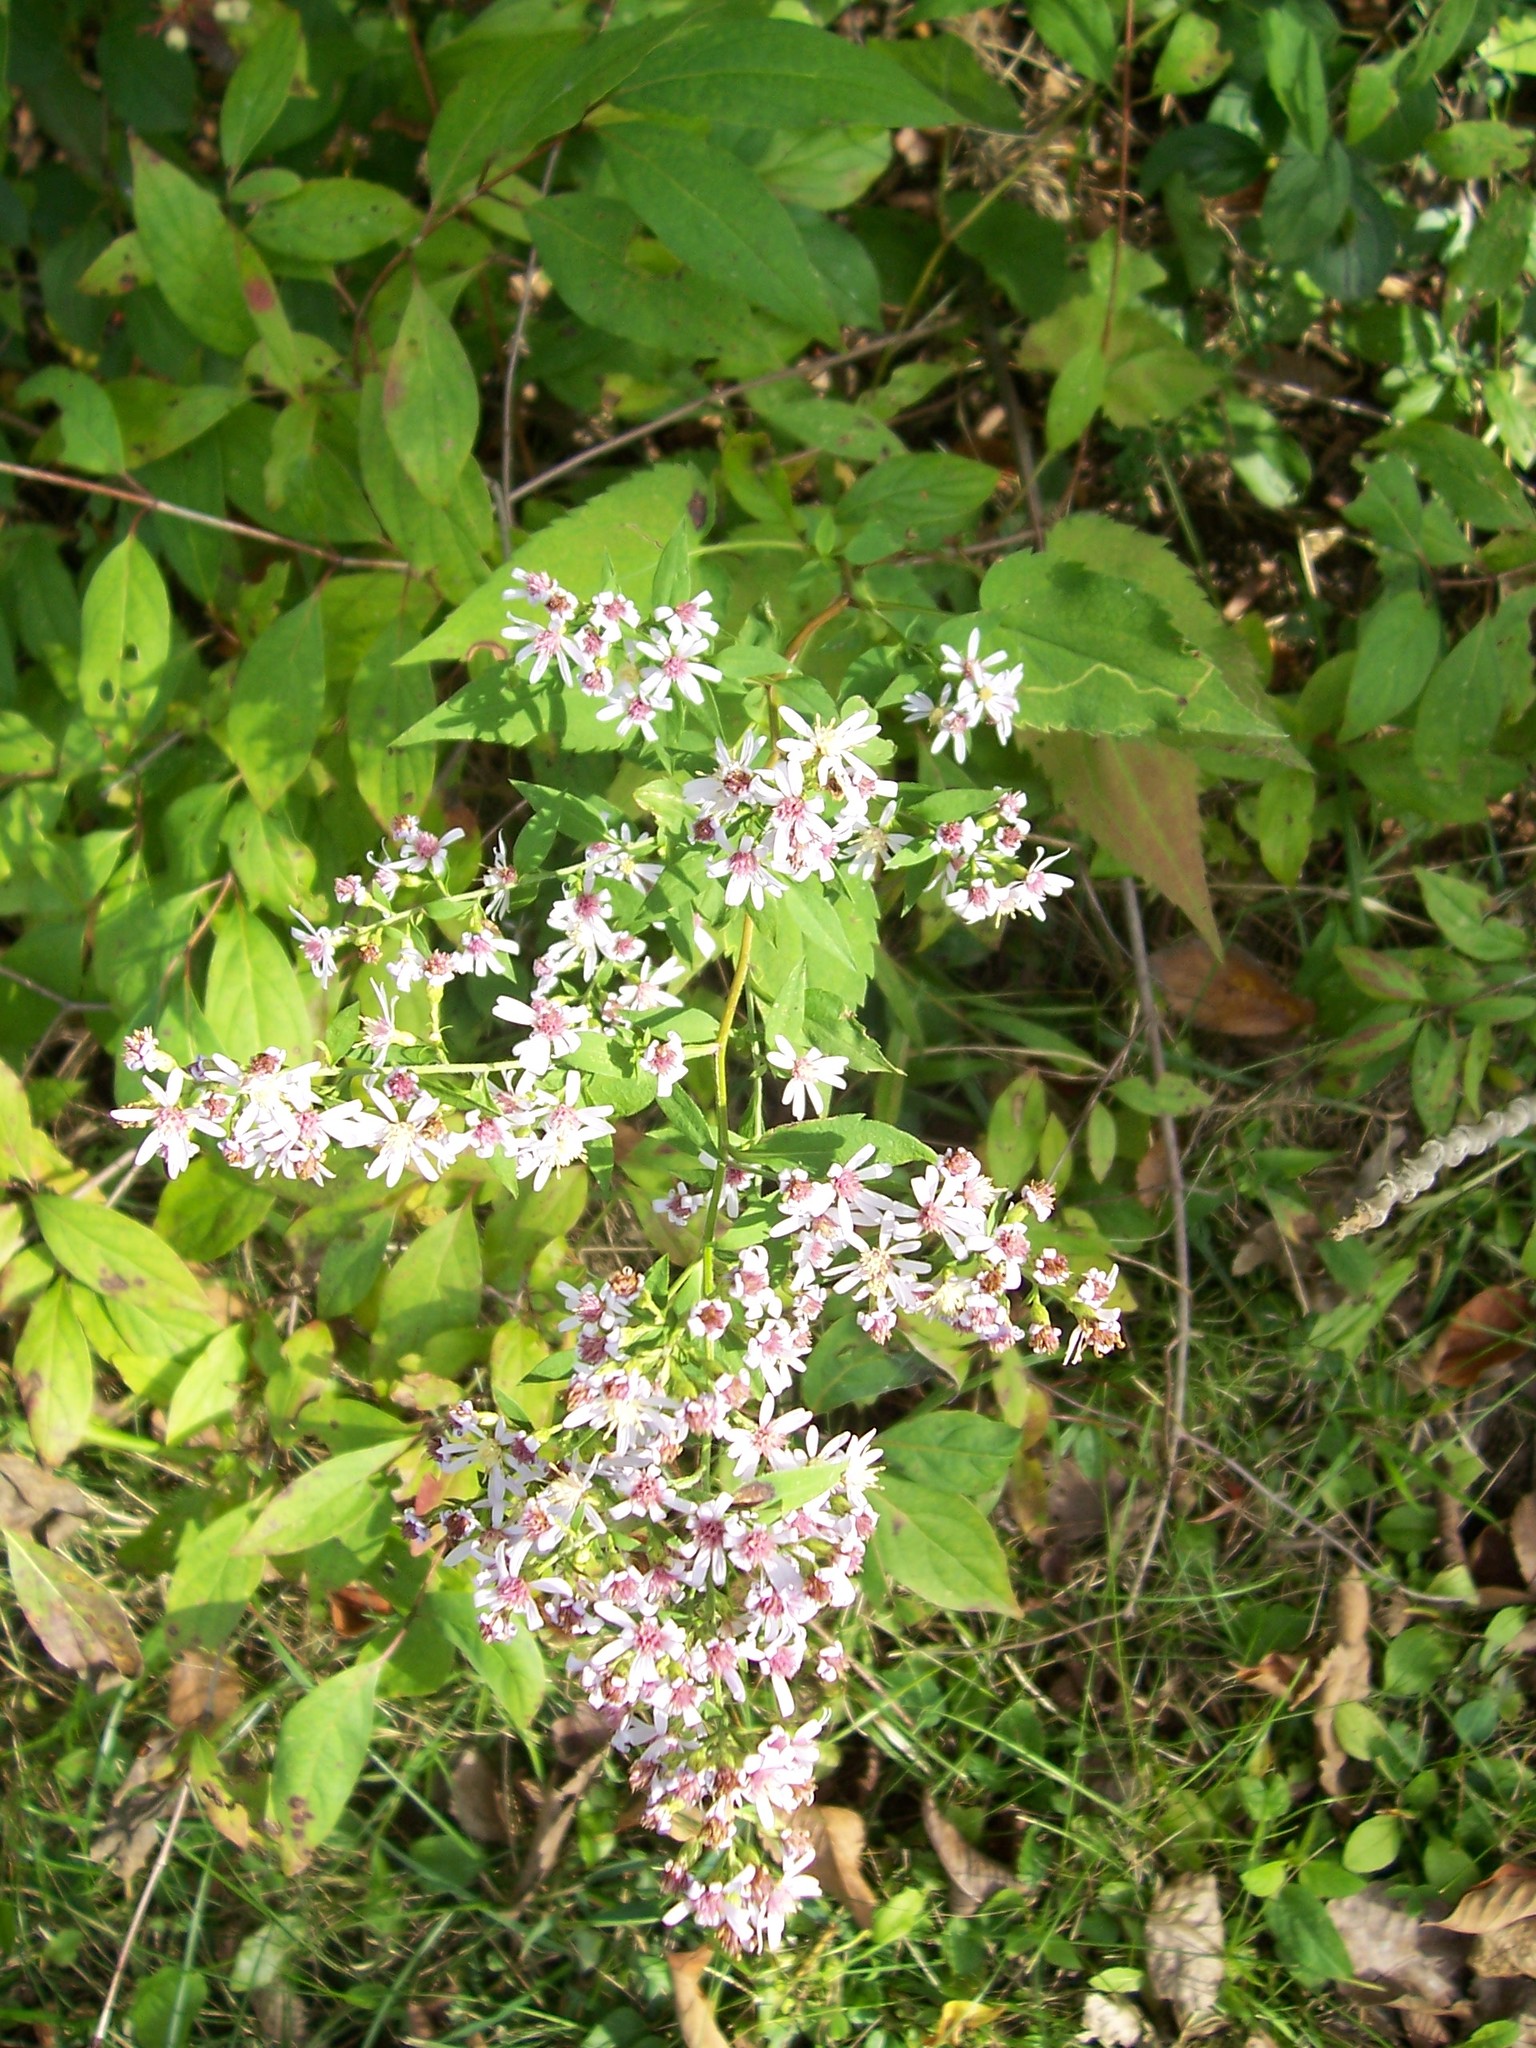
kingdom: Plantae
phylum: Tracheophyta
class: Magnoliopsida
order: Asterales
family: Asteraceae
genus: Symphyotrichum
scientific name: Symphyotrichum cordifolium
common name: Beeweed
